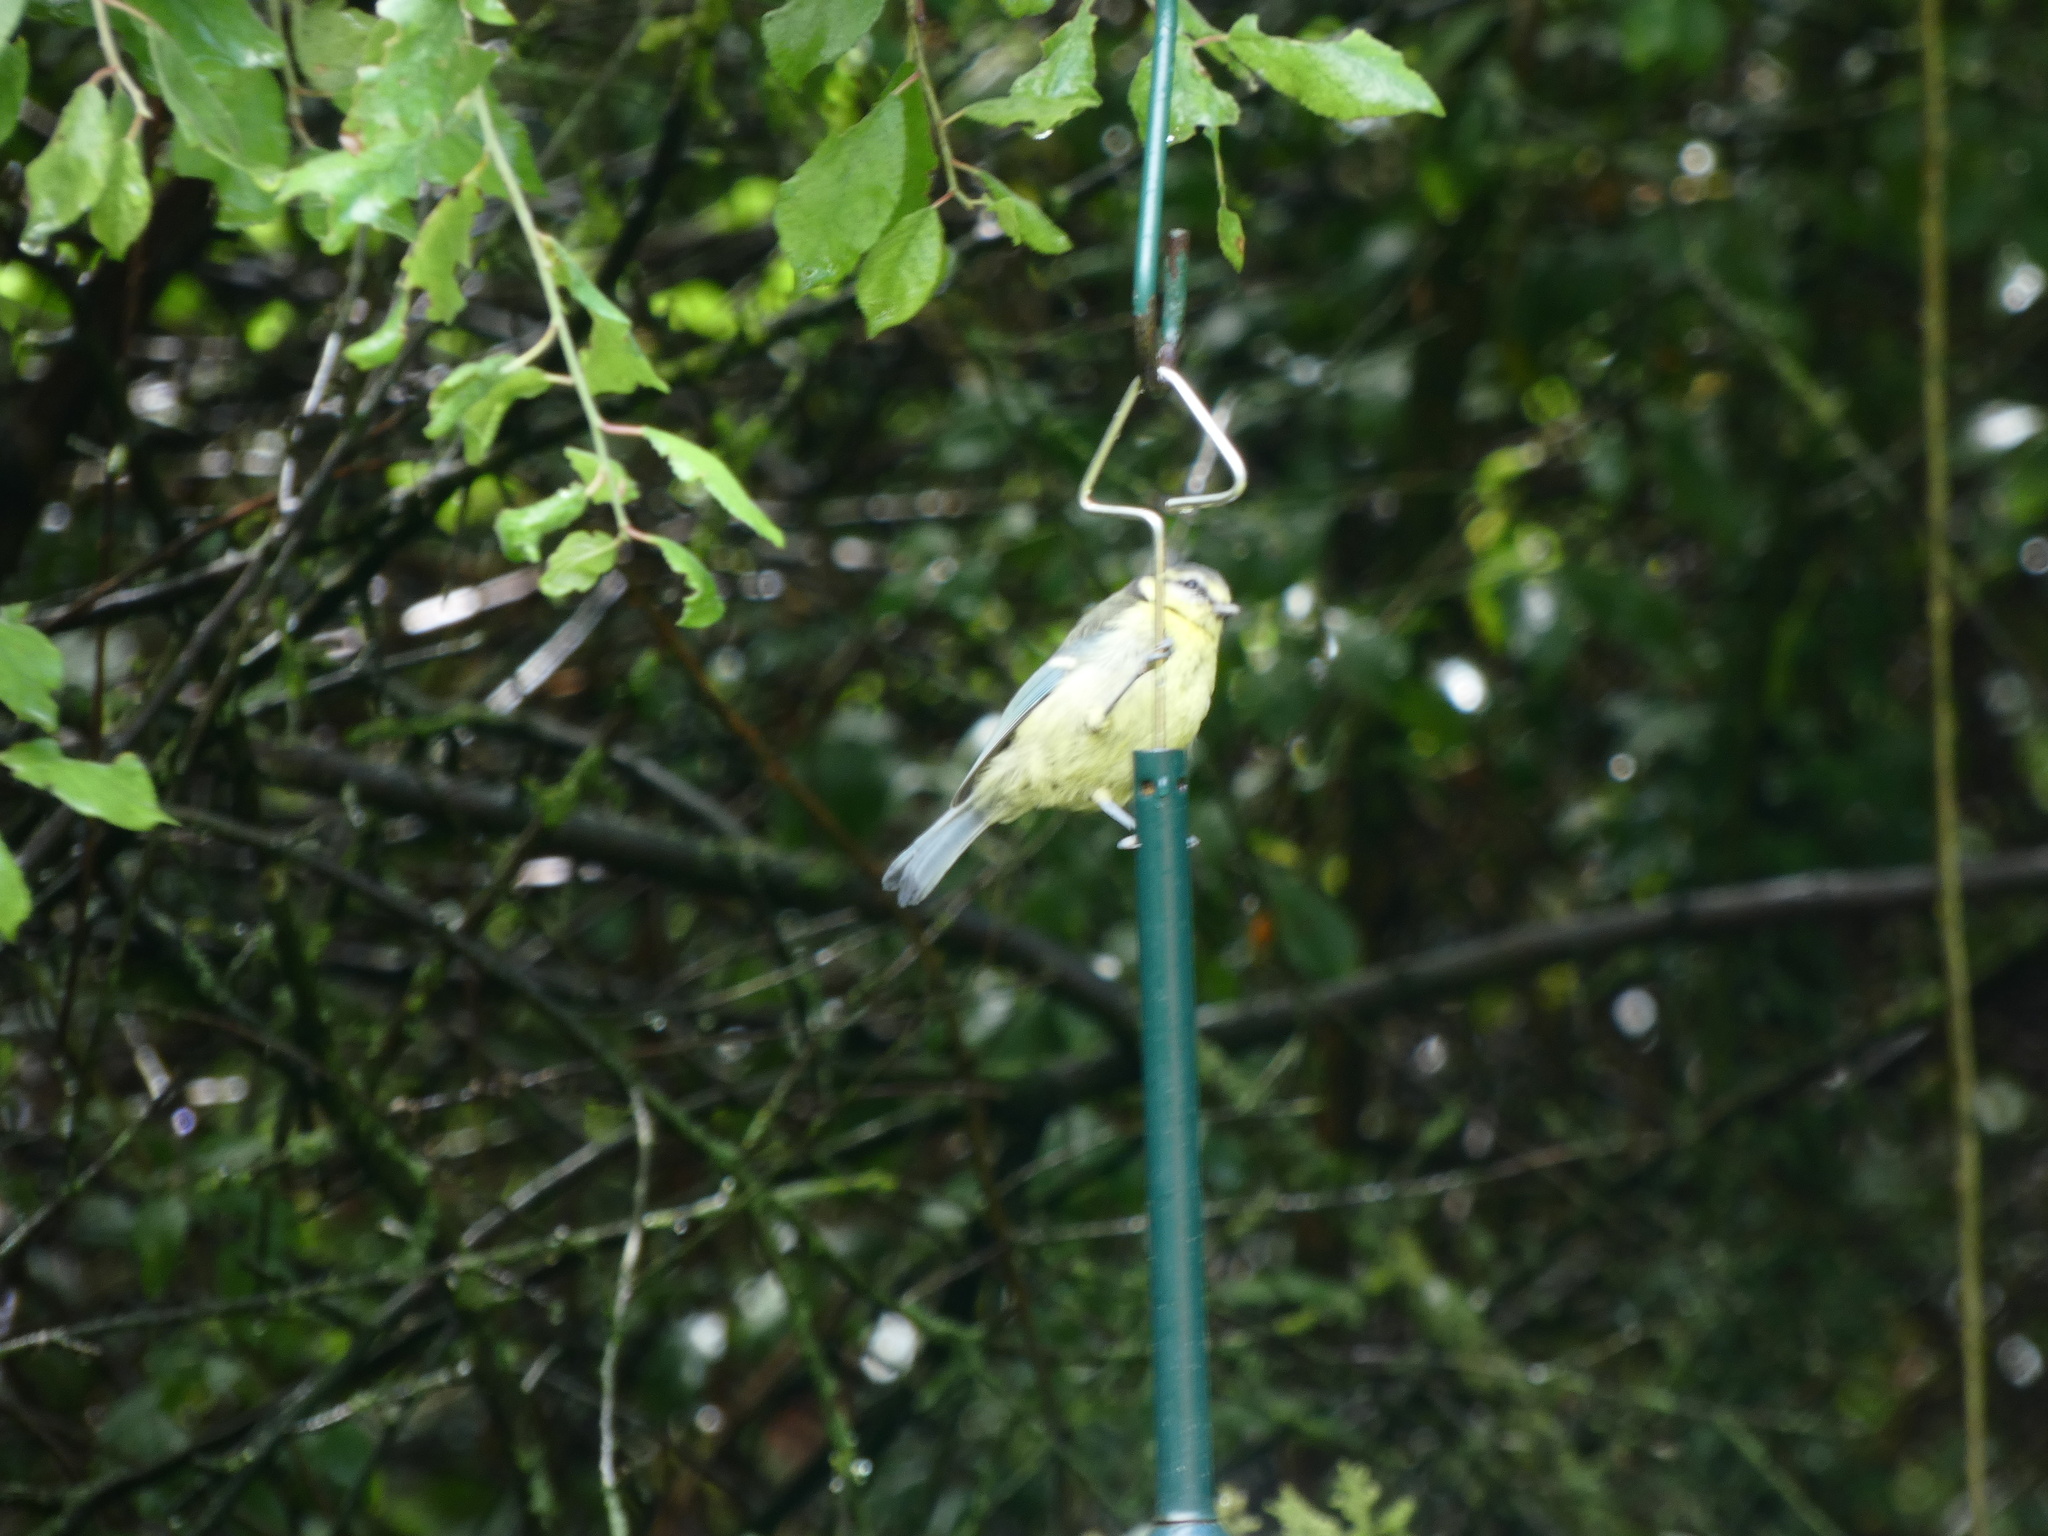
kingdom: Animalia
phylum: Chordata
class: Aves
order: Passeriformes
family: Paridae
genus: Cyanistes
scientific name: Cyanistes caeruleus
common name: Eurasian blue tit
